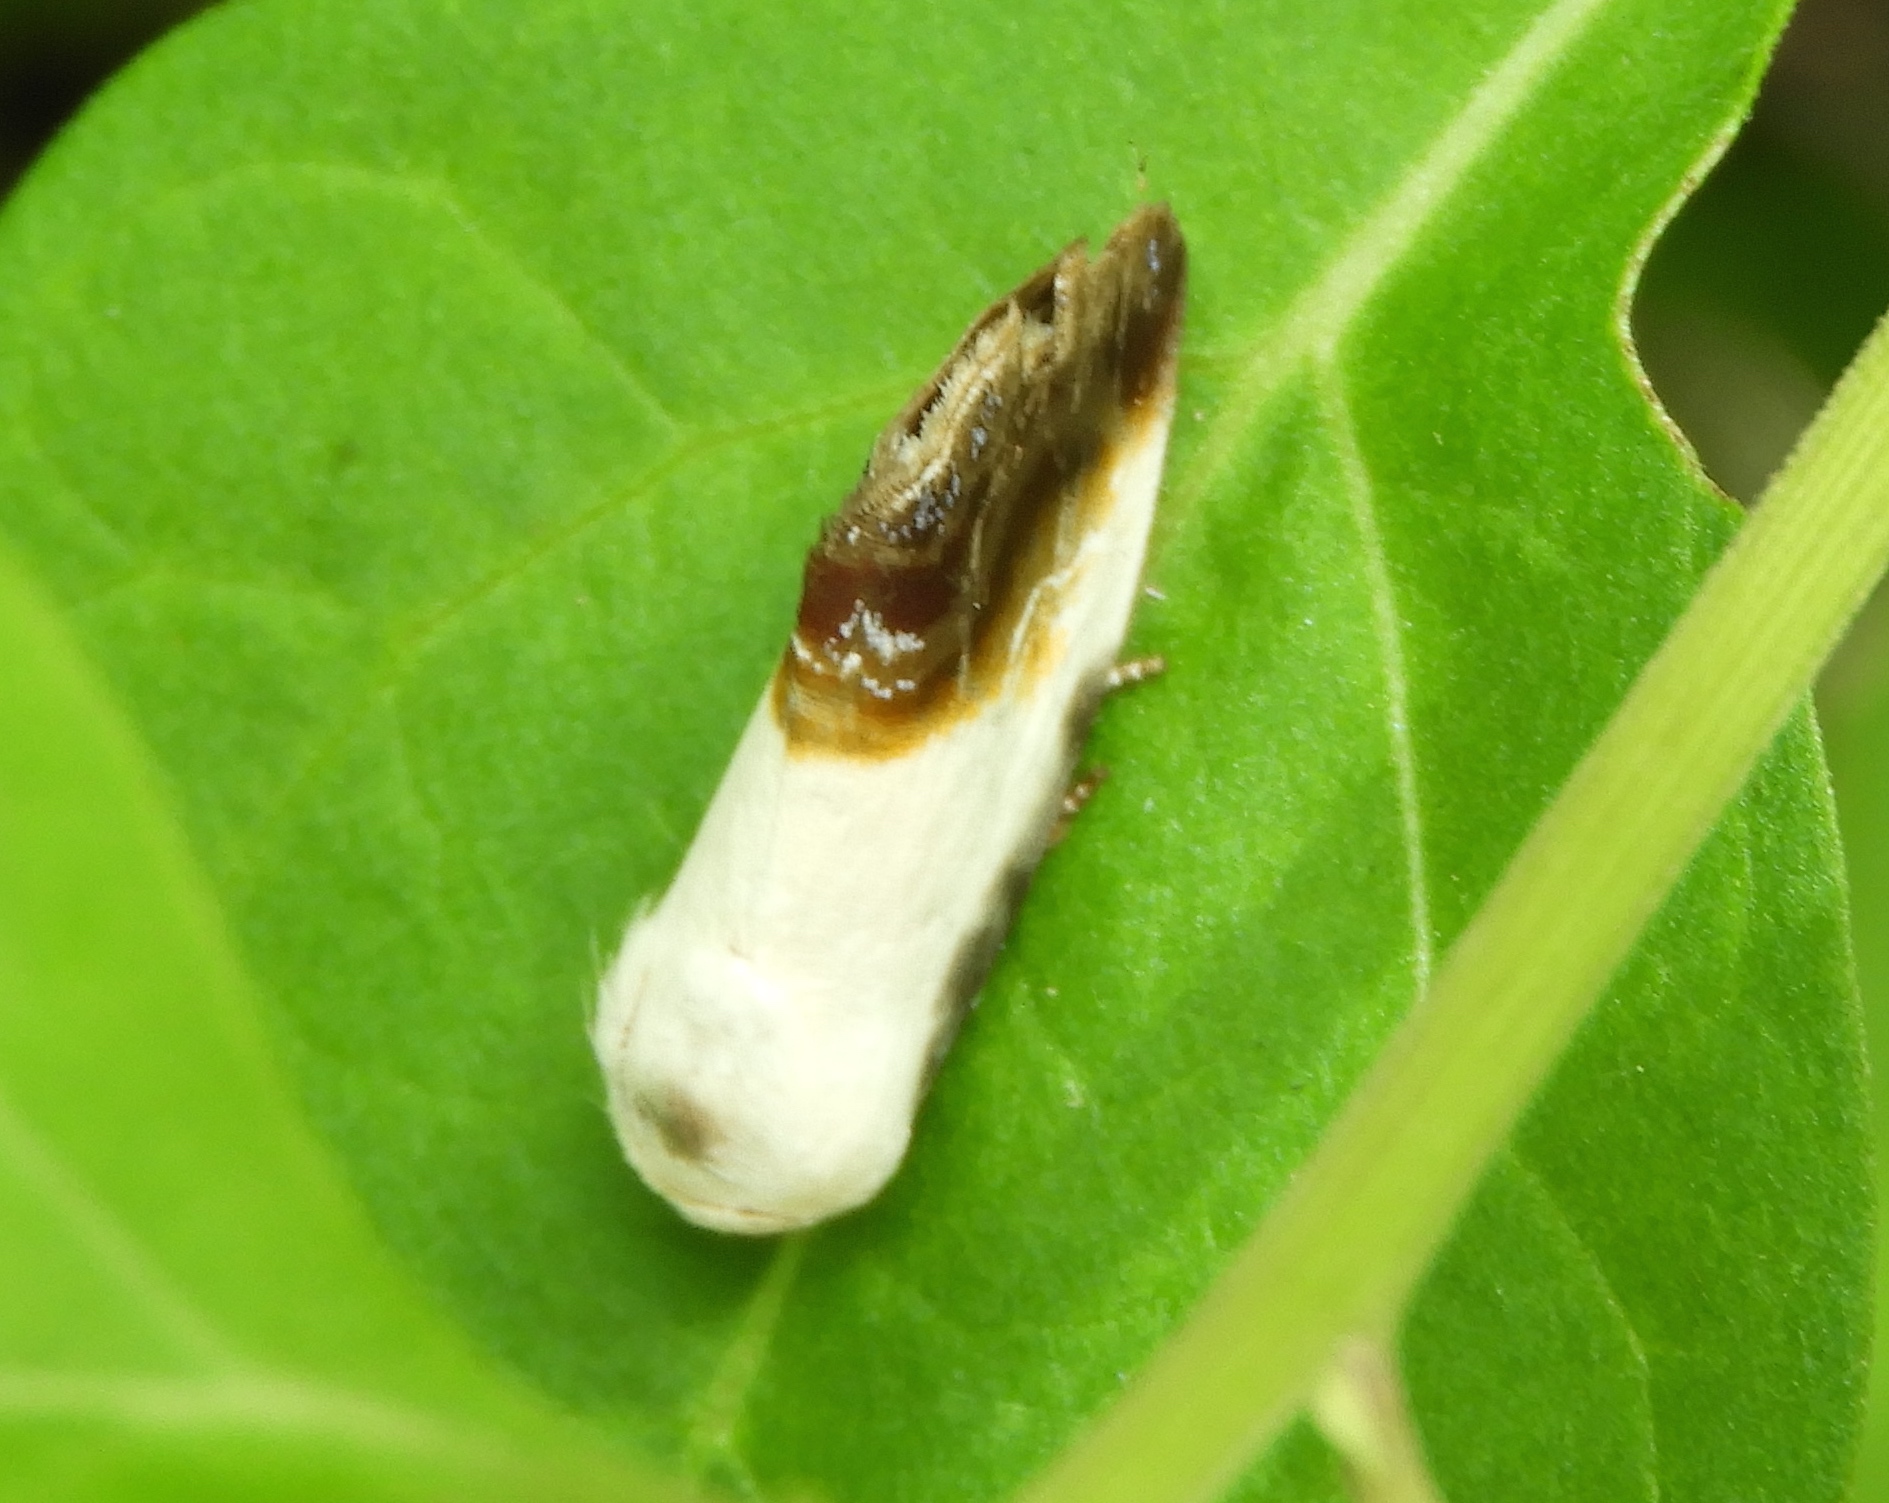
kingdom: Animalia
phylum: Arthropoda
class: Insecta
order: Lepidoptera
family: Noctuidae
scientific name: Noctuidae
